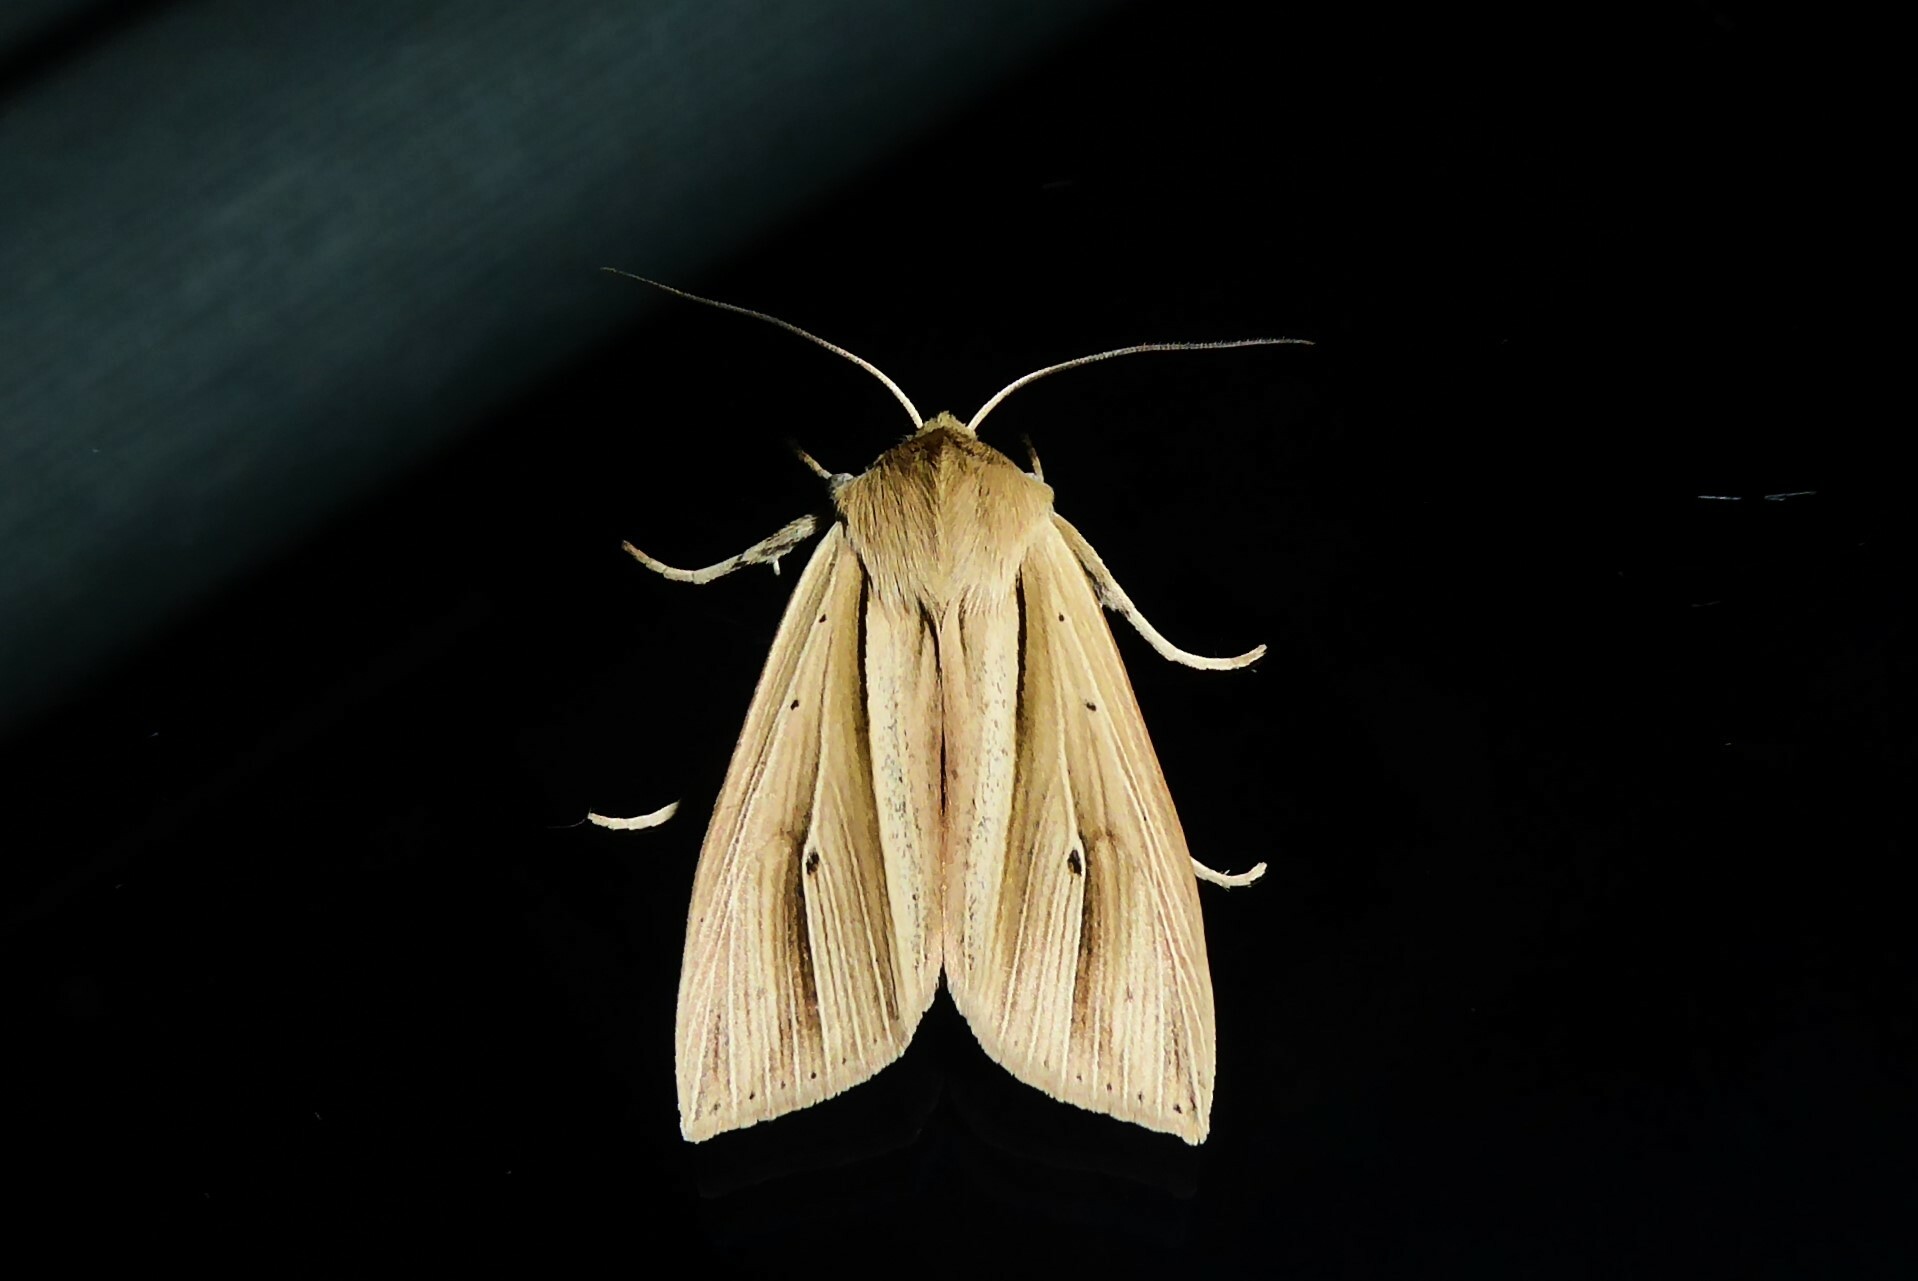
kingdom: Animalia
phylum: Arthropoda
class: Insecta
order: Lepidoptera
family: Noctuidae
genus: Ichneutica
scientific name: Ichneutica sulcana
